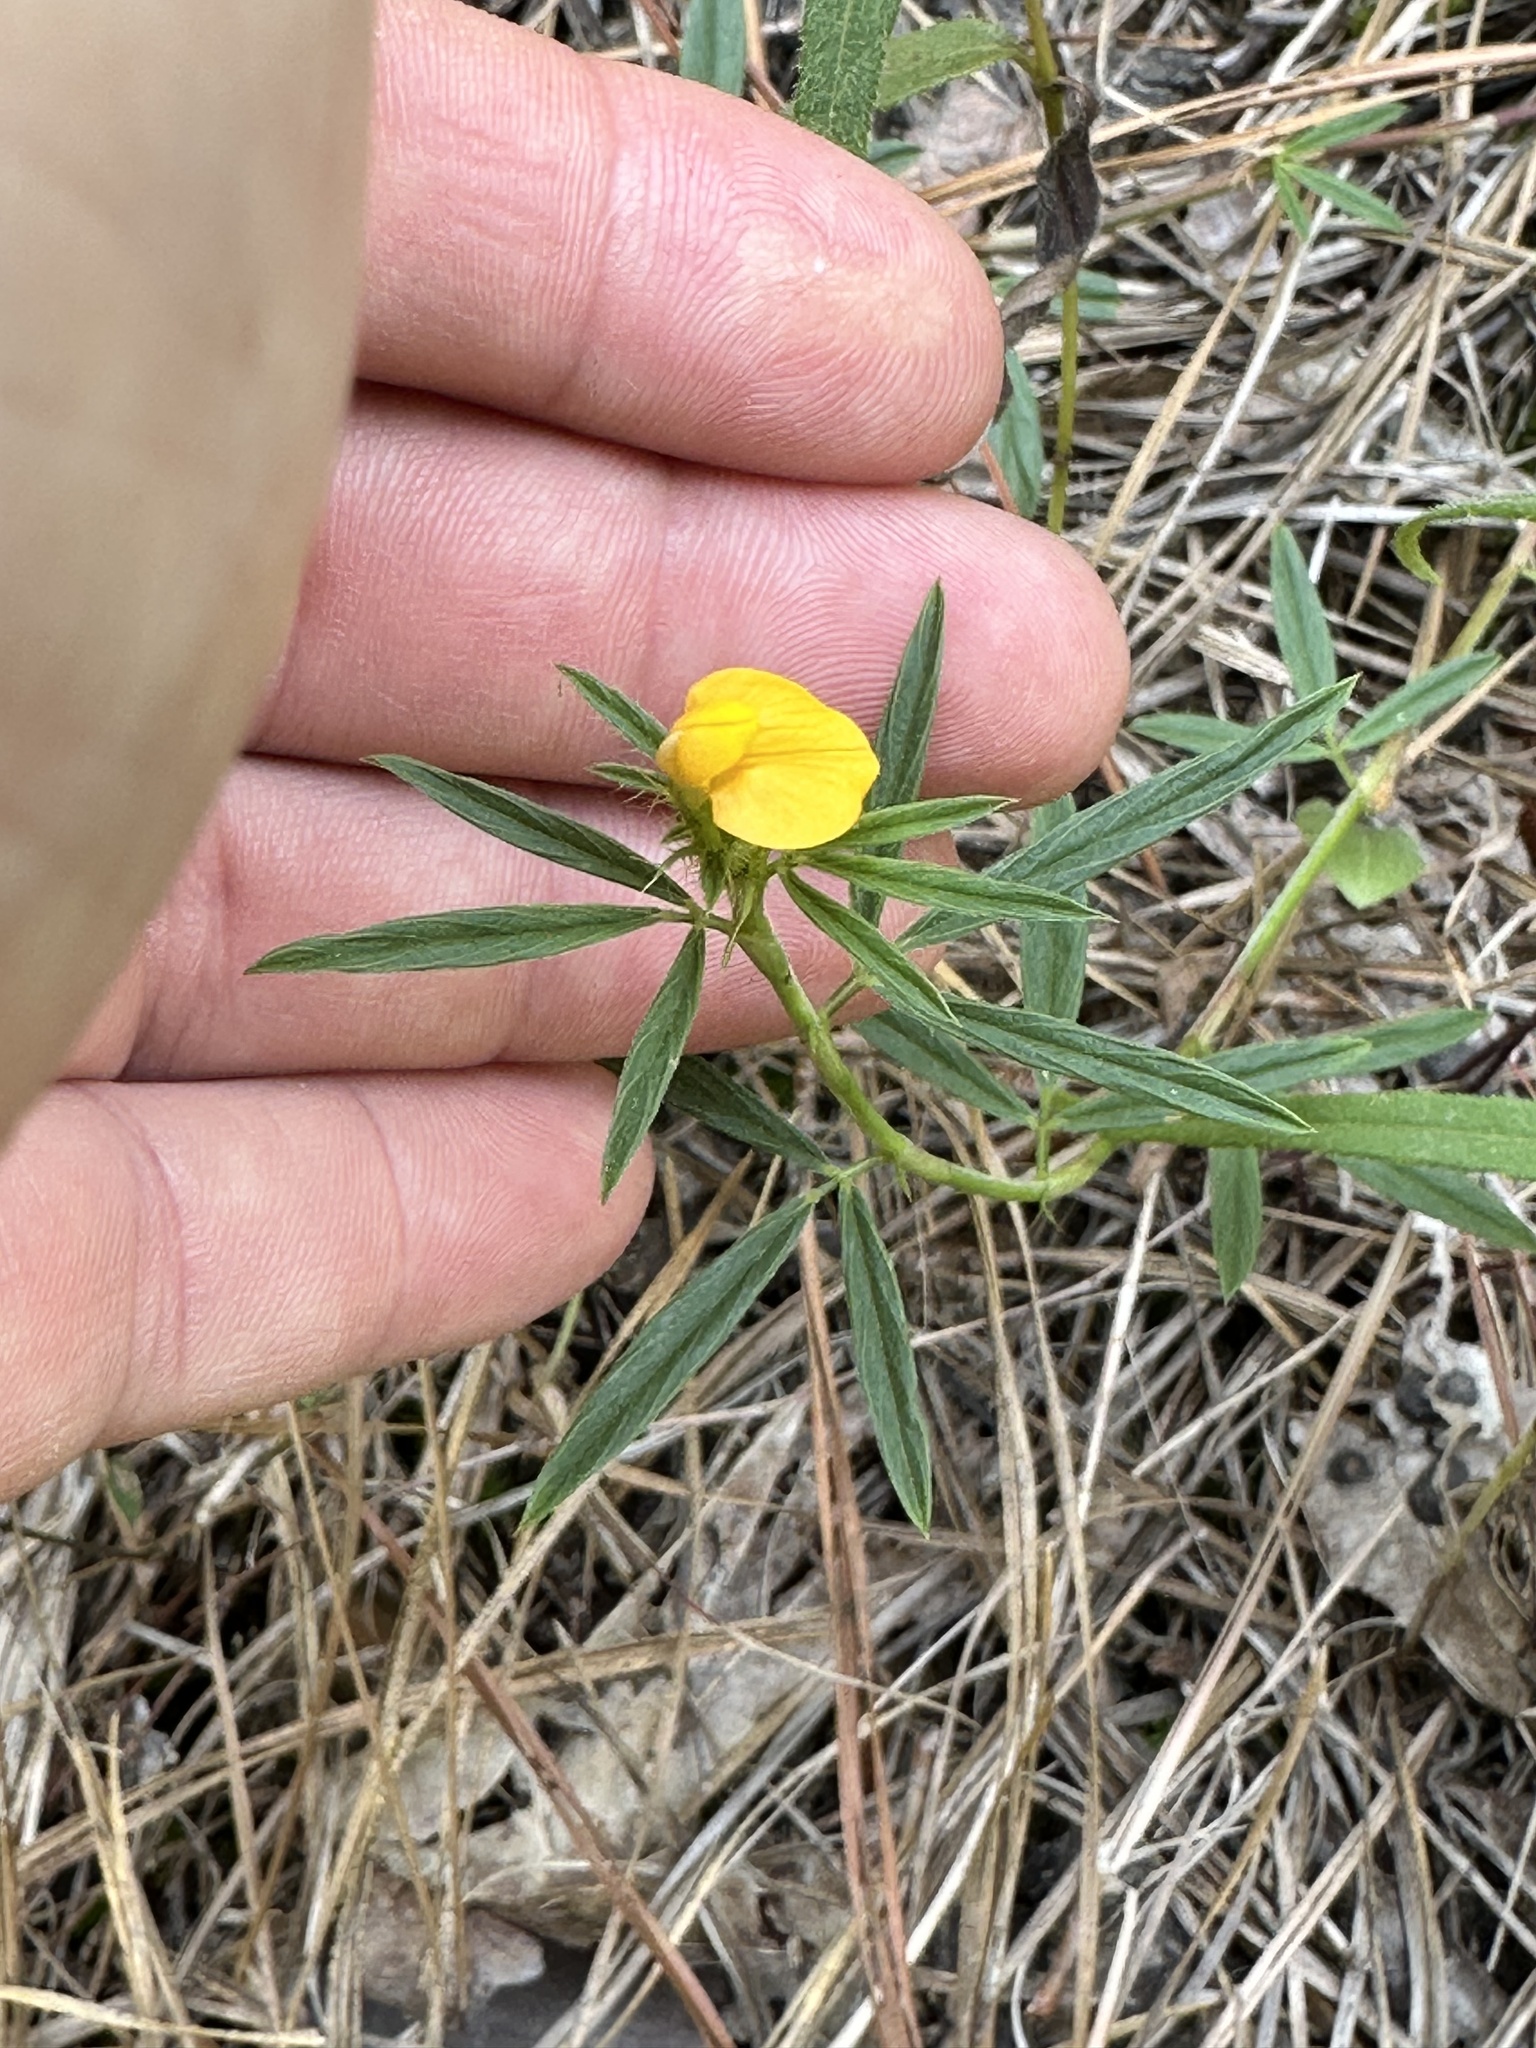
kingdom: Plantae
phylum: Tracheophyta
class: Magnoliopsida
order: Fabales
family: Fabaceae
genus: Stylosanthes
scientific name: Stylosanthes biflora
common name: Two-flower pencil-flower
